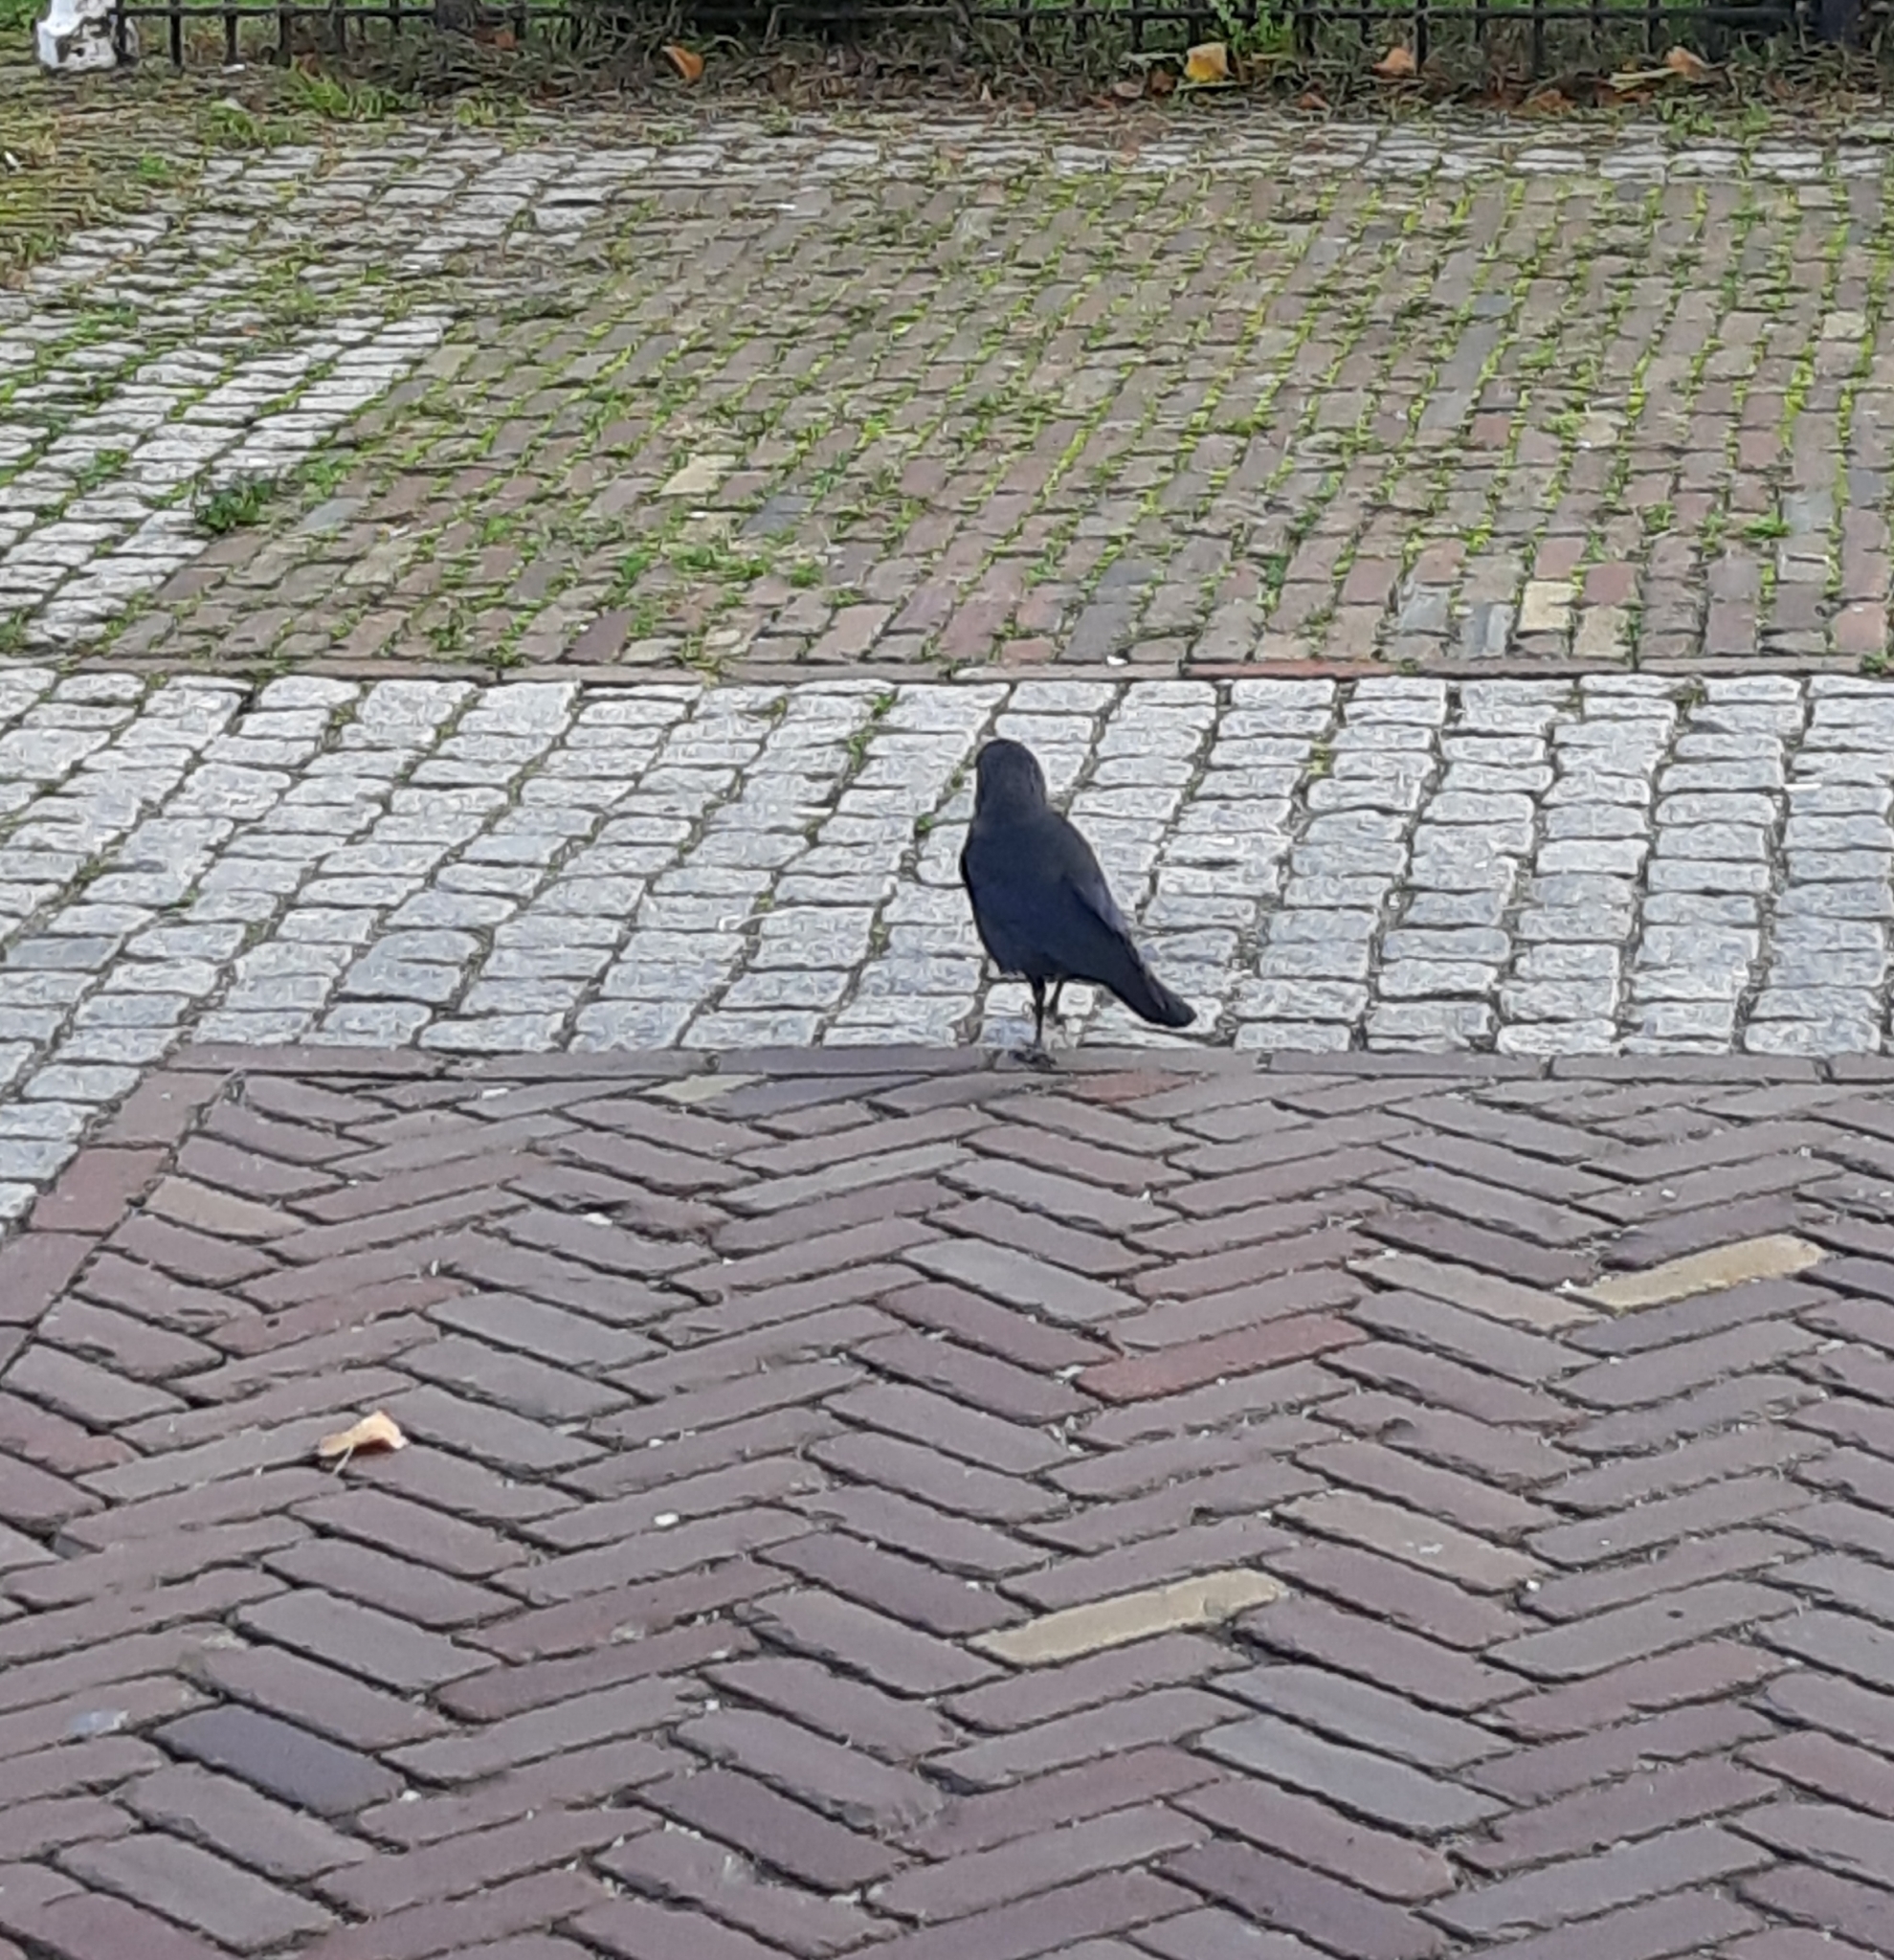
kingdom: Animalia
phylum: Chordata
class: Aves
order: Passeriformes
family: Corvidae
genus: Coloeus
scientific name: Coloeus monedula
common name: Western jackdaw
